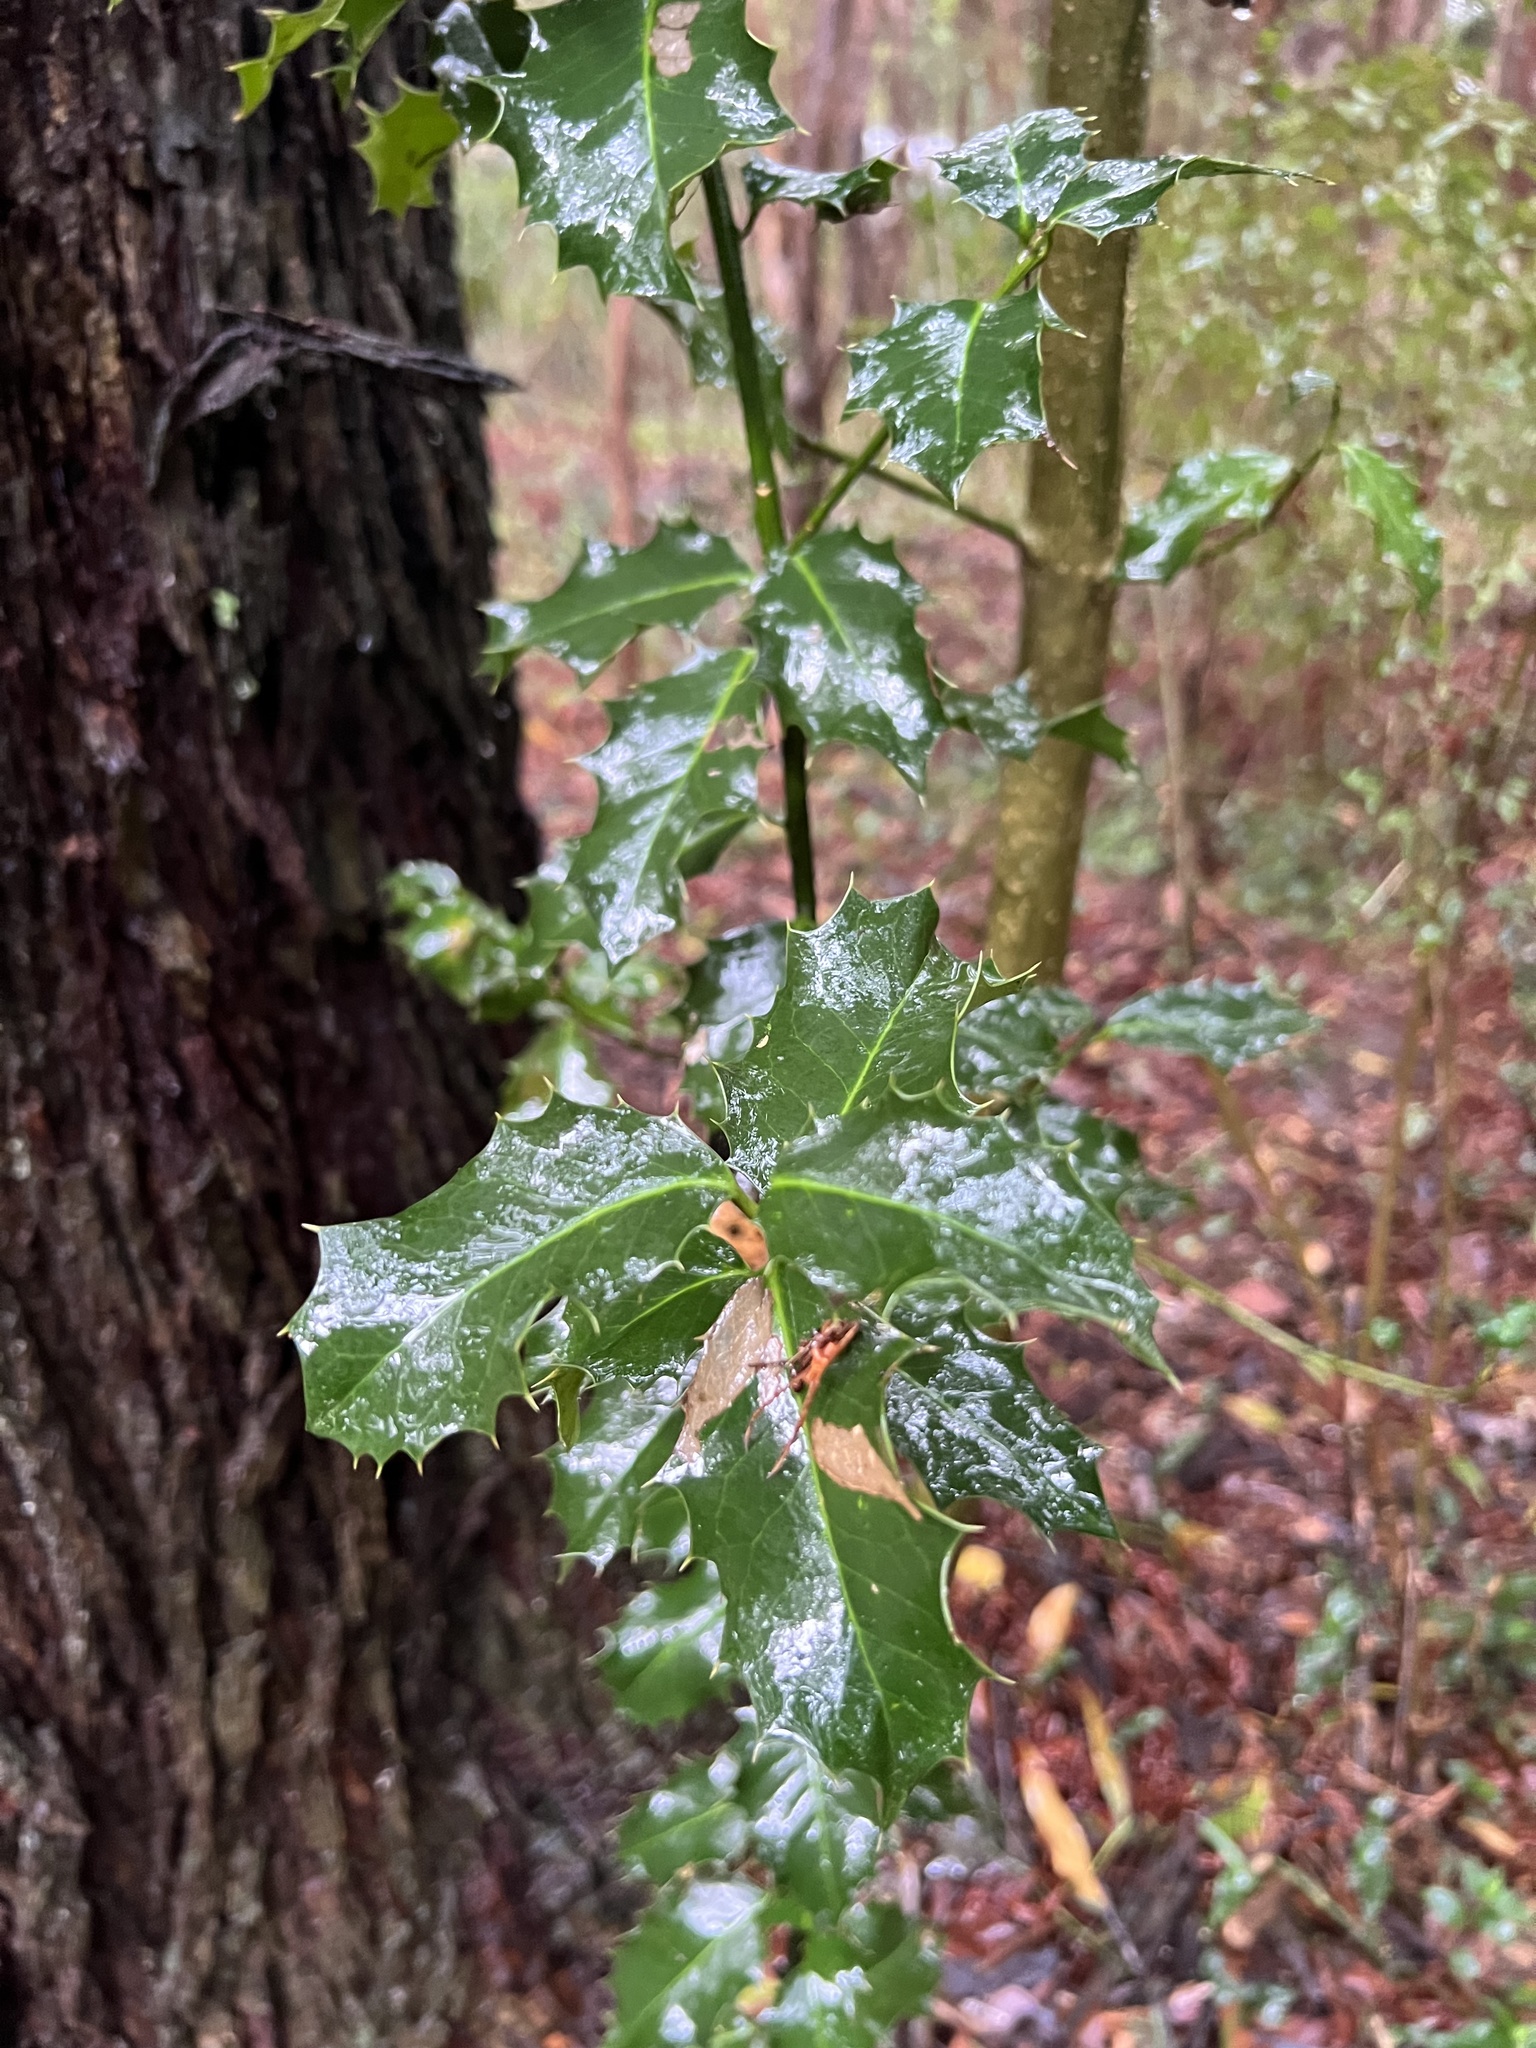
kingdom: Plantae
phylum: Tracheophyta
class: Magnoliopsida
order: Aquifoliales
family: Aquifoliaceae
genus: Ilex
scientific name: Ilex aquifolium
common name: English holly
